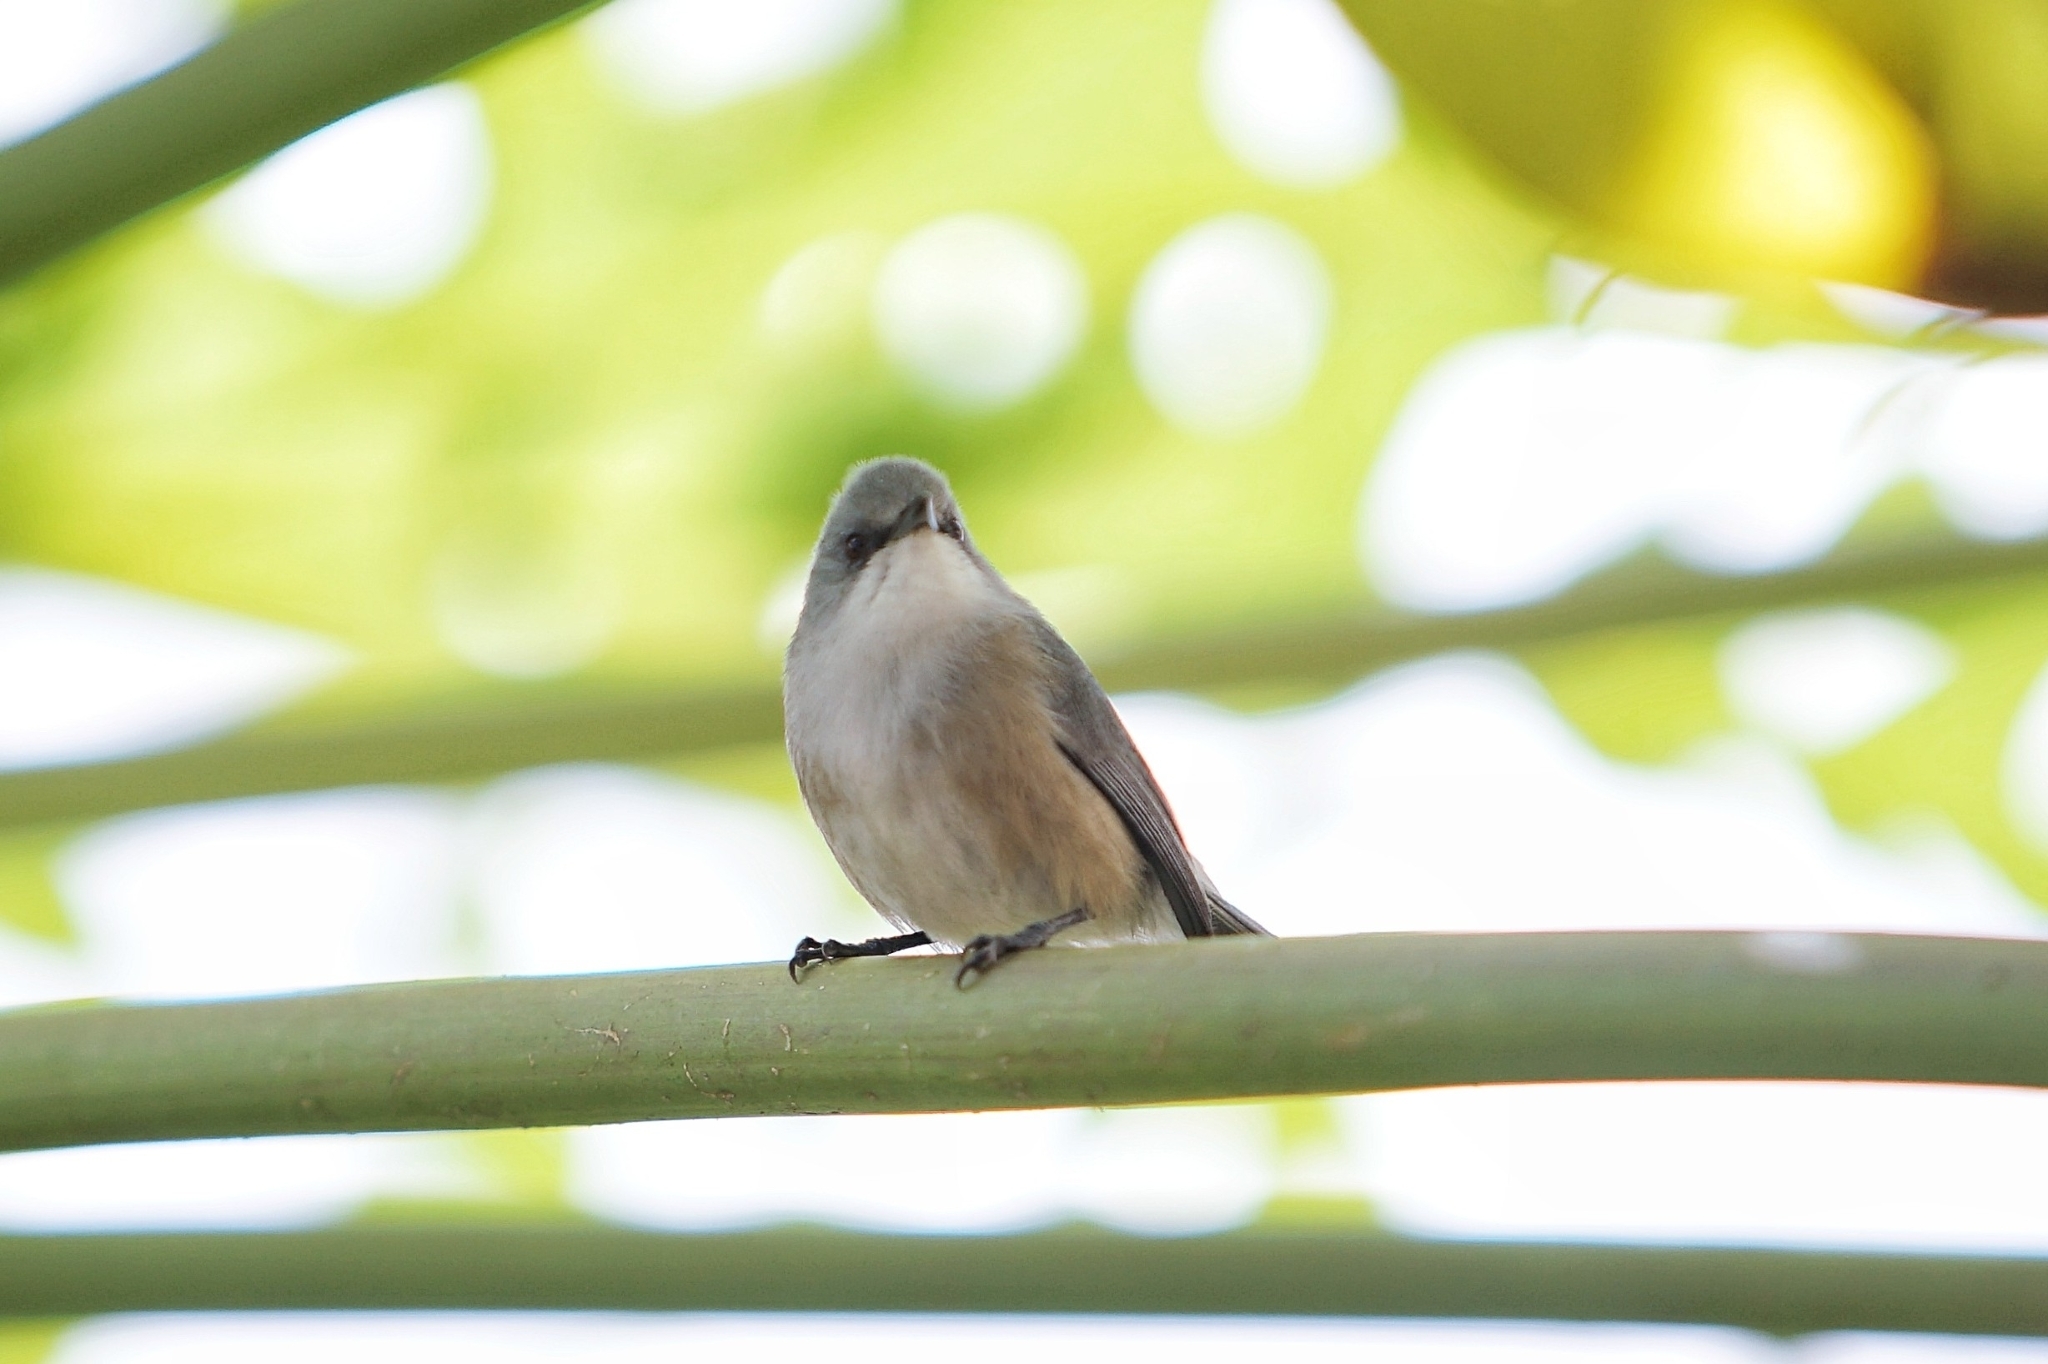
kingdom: Animalia
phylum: Chordata
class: Aves
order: Passeriformes
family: Zosteropidae
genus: Zosterops
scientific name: Zosterops mauritianus
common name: Mauritius gray white-eye
